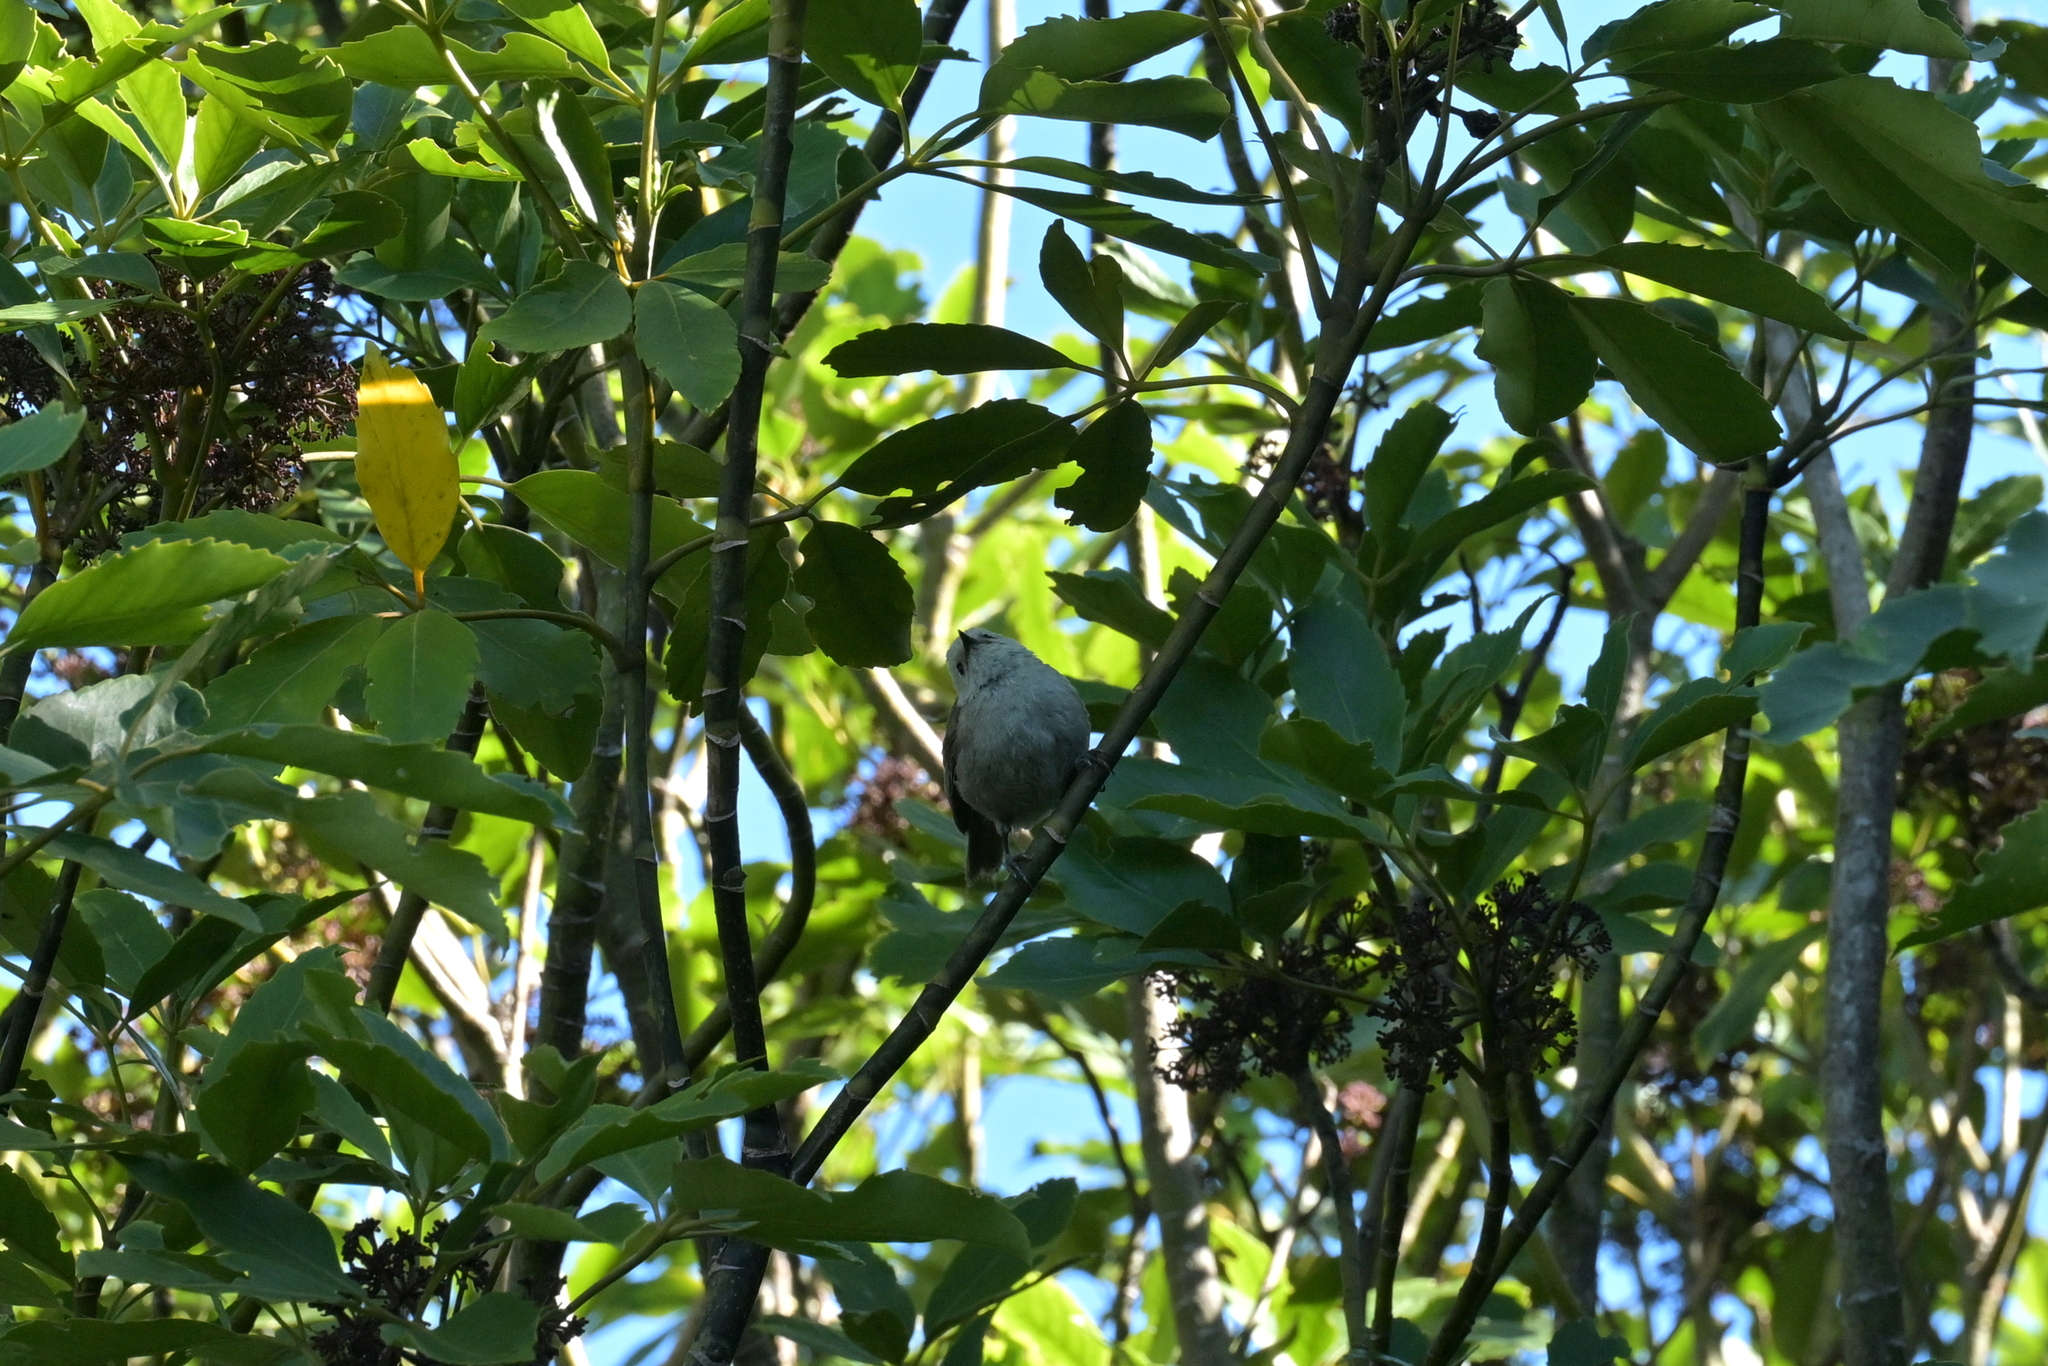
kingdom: Animalia
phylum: Chordata
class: Aves
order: Passeriformes
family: Acanthizidae
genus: Mohoua
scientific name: Mohoua albicilla
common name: Whitehead
